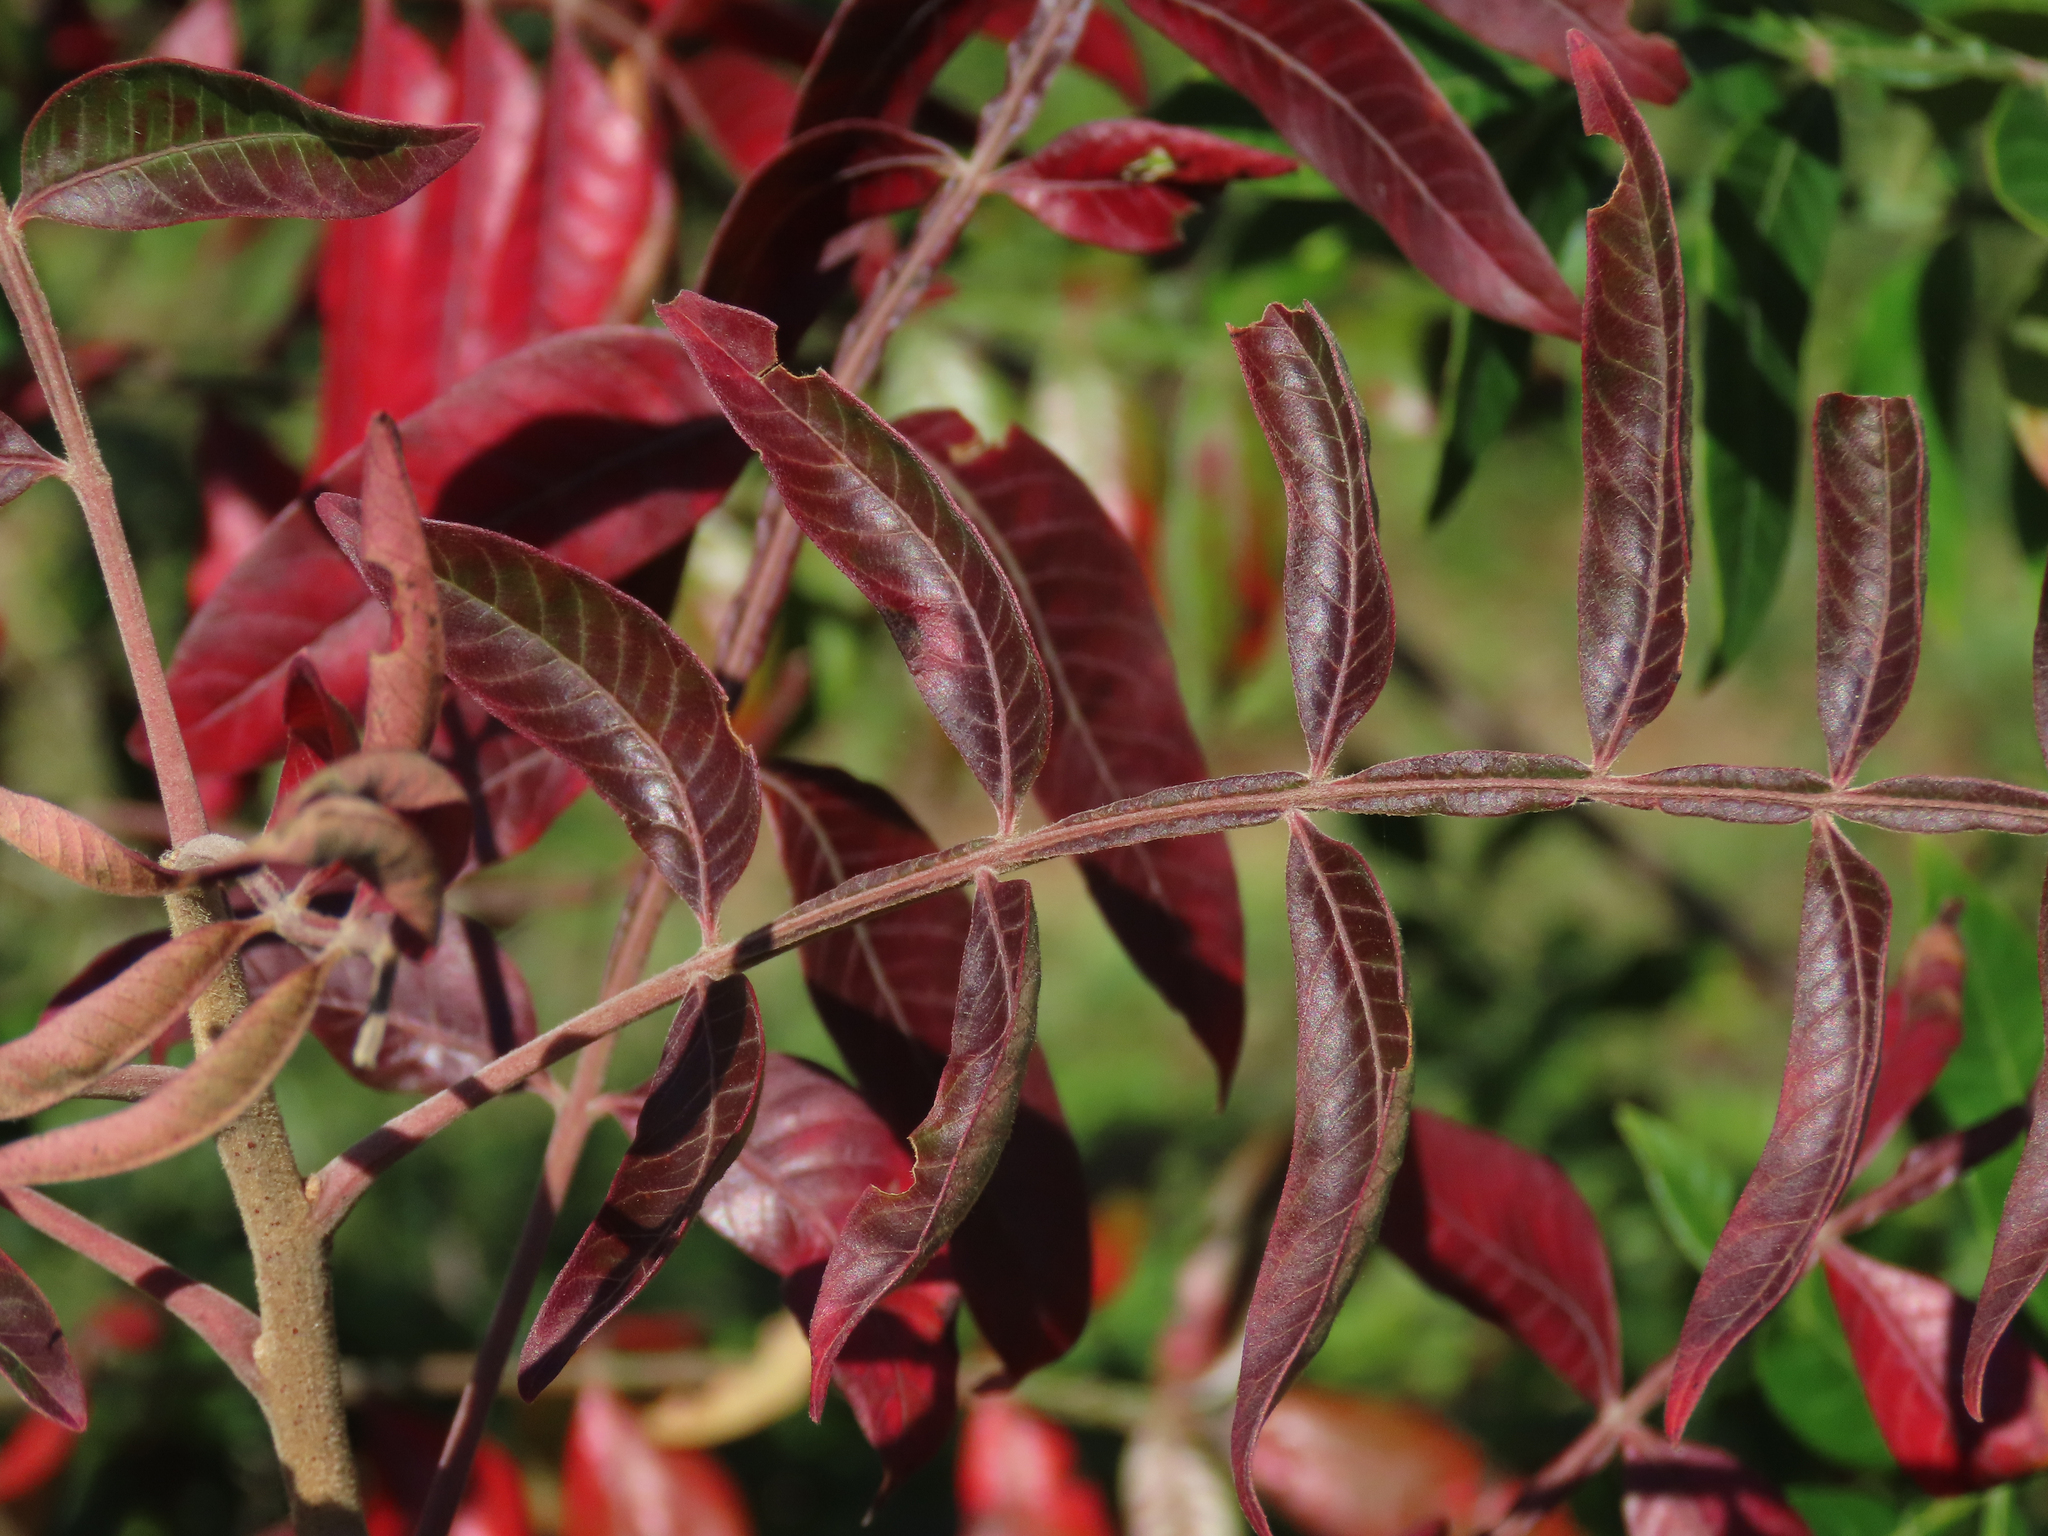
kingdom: Plantae
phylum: Tracheophyta
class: Magnoliopsida
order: Sapindales
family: Anacardiaceae
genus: Rhus
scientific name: Rhus copallina
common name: Shining sumac
